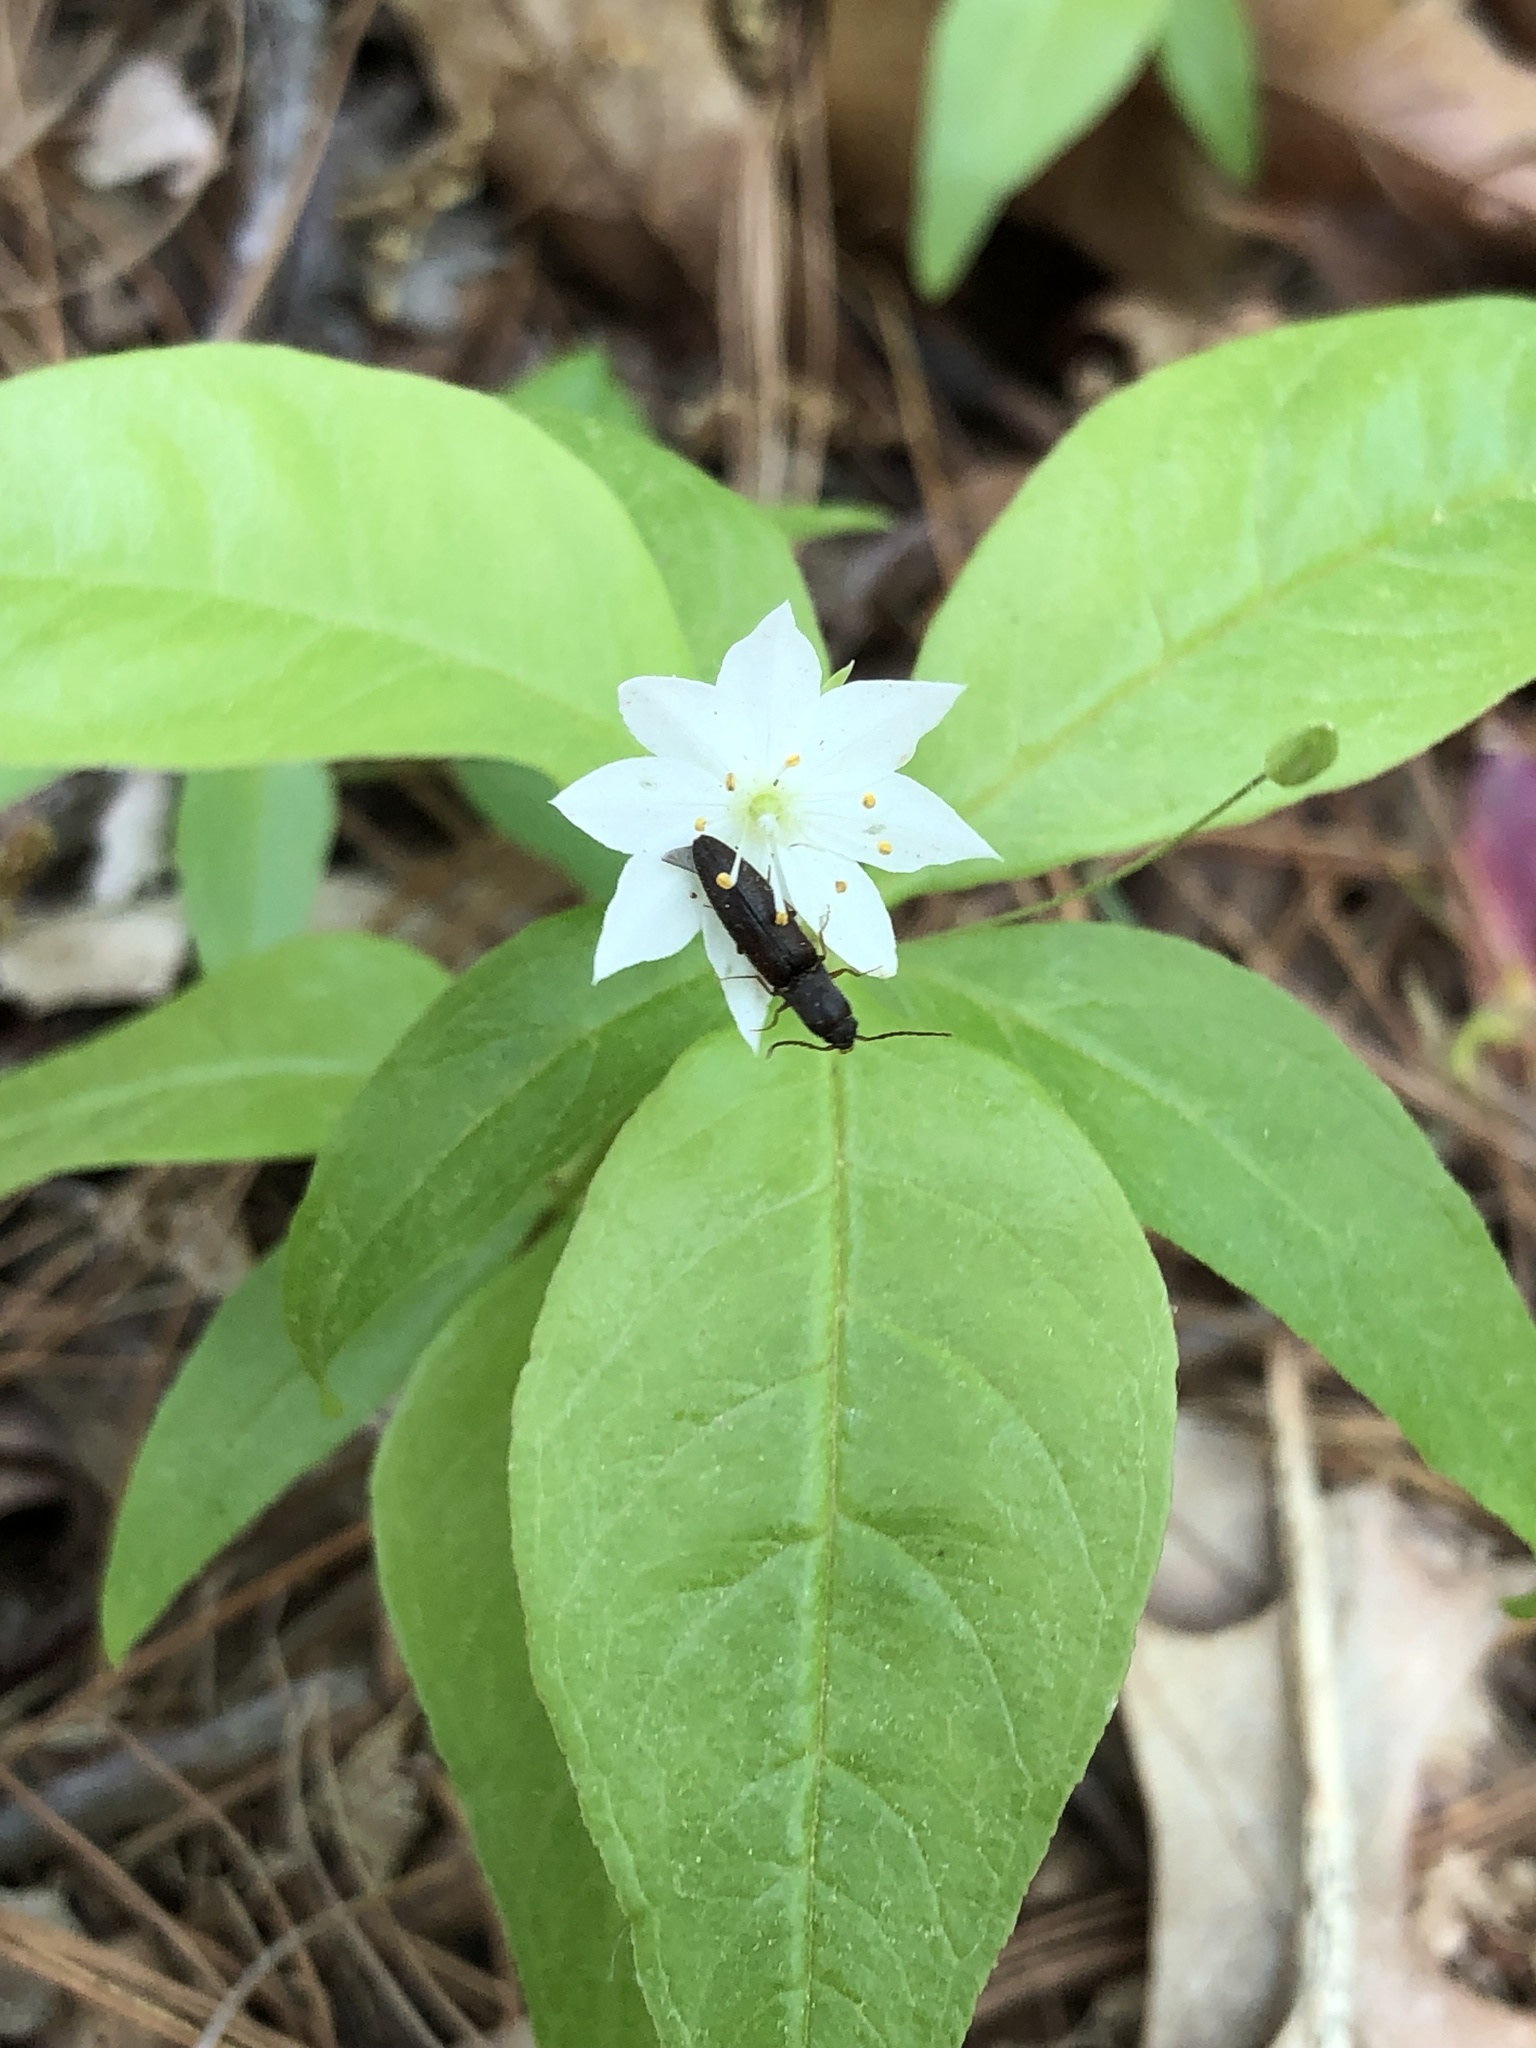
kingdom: Animalia
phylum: Arthropoda
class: Insecta
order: Coleoptera
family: Elateridae
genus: Agriotes
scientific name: Agriotes
